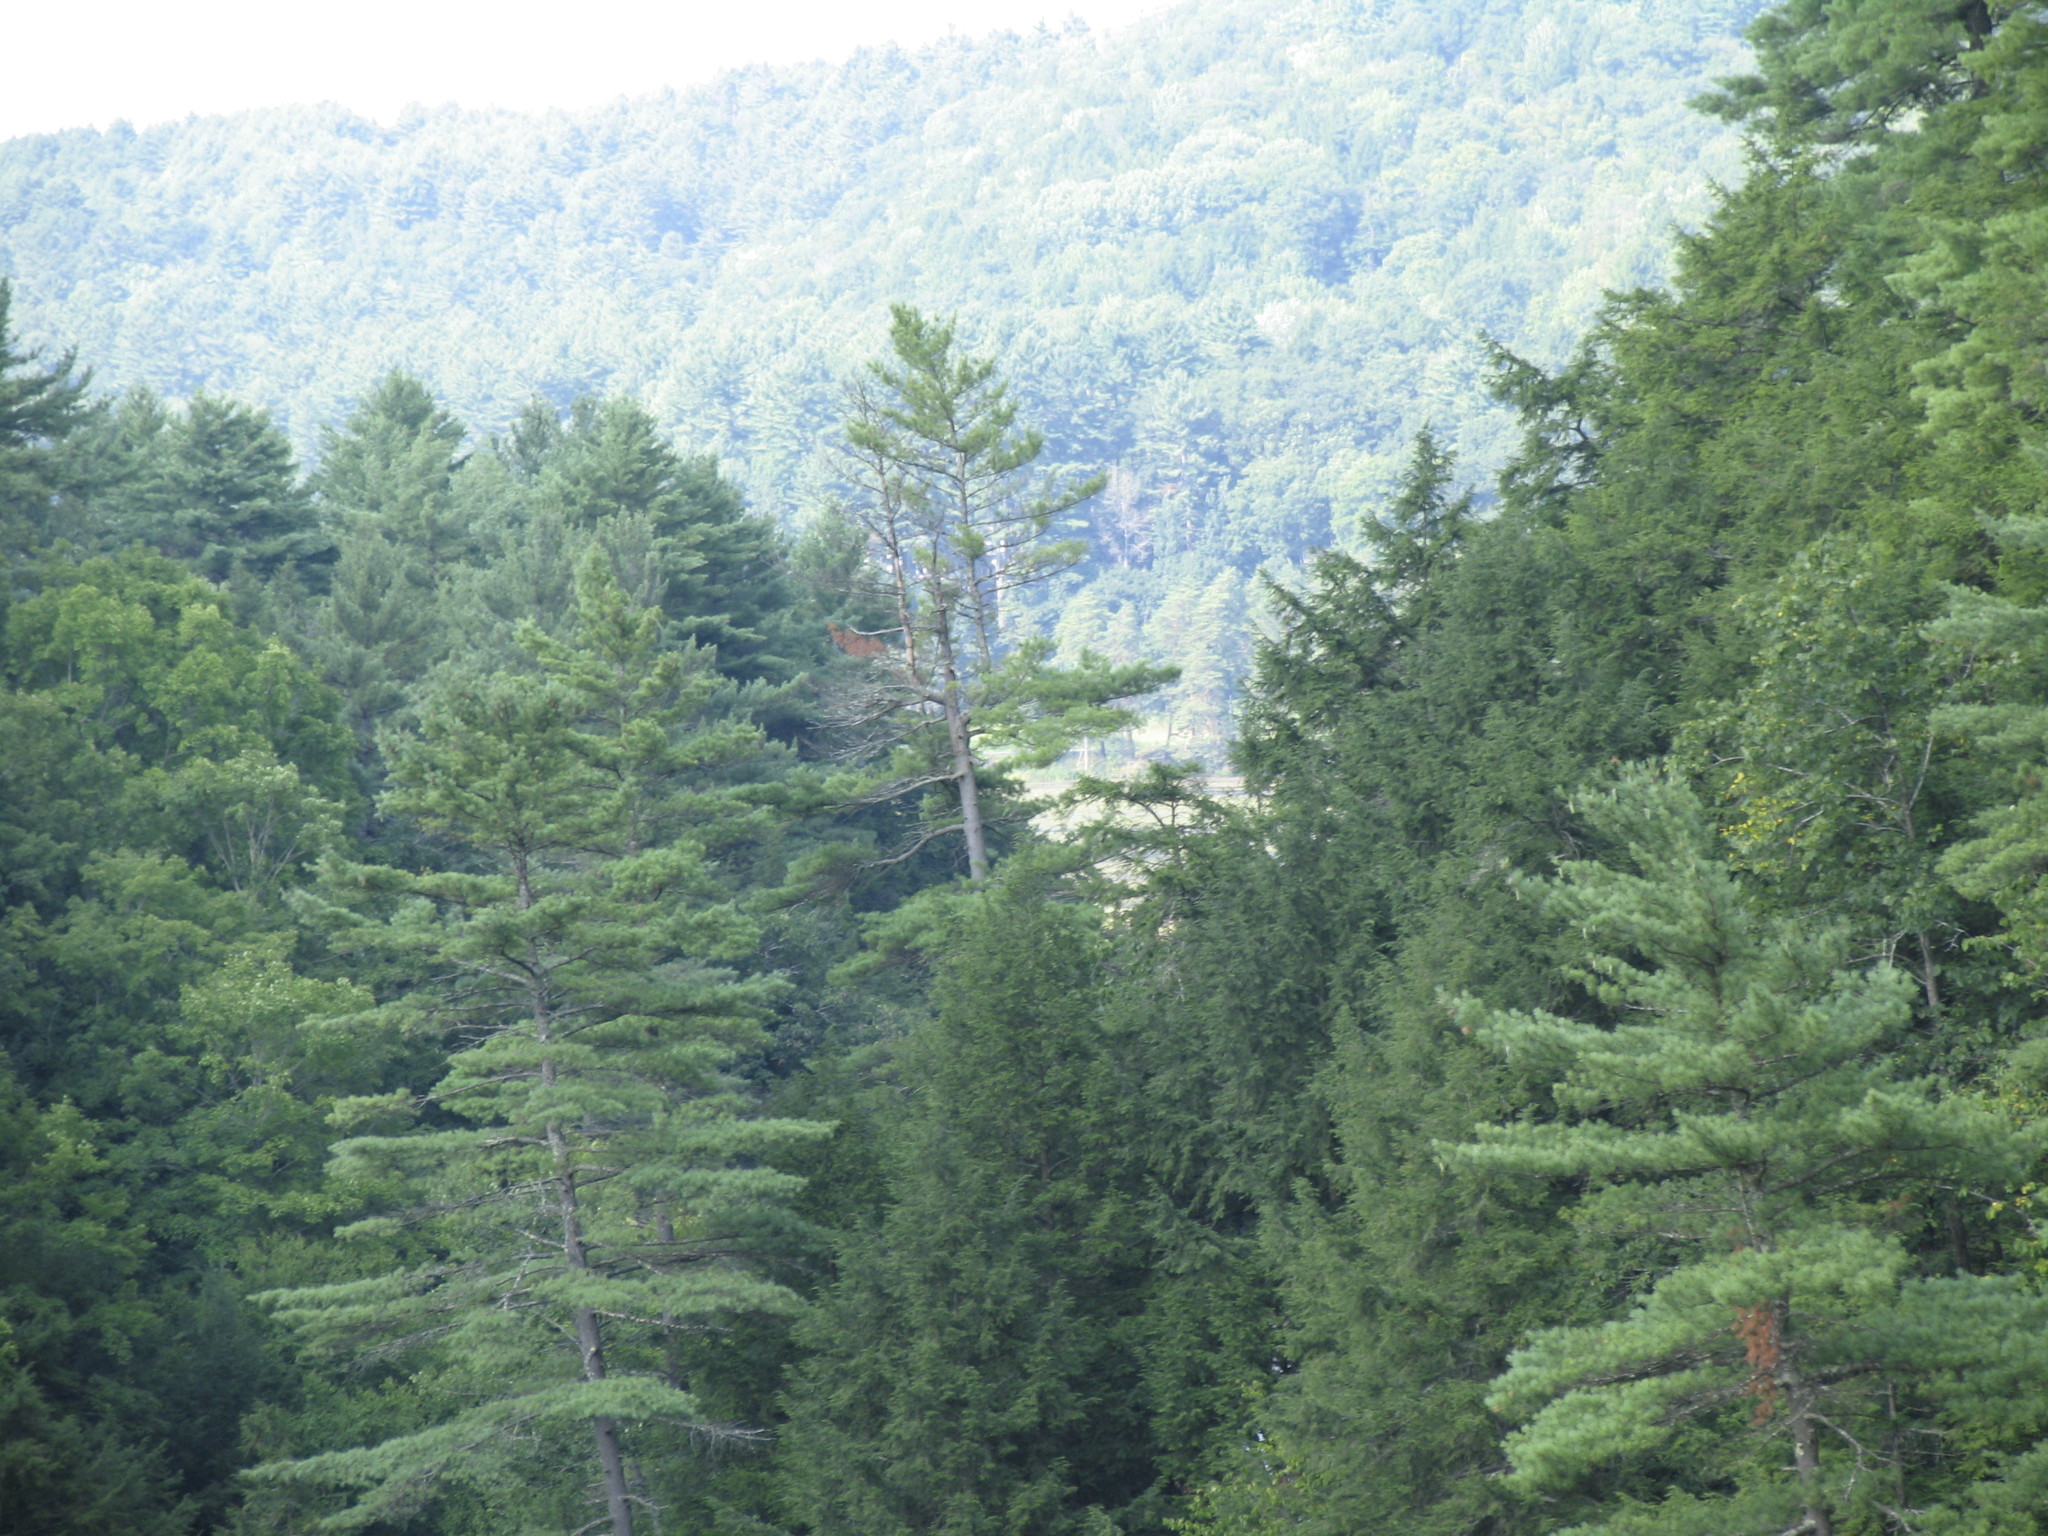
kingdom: Plantae
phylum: Tracheophyta
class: Pinopsida
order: Pinales
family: Pinaceae
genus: Pinus
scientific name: Pinus strobus
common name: Weymouth pine
